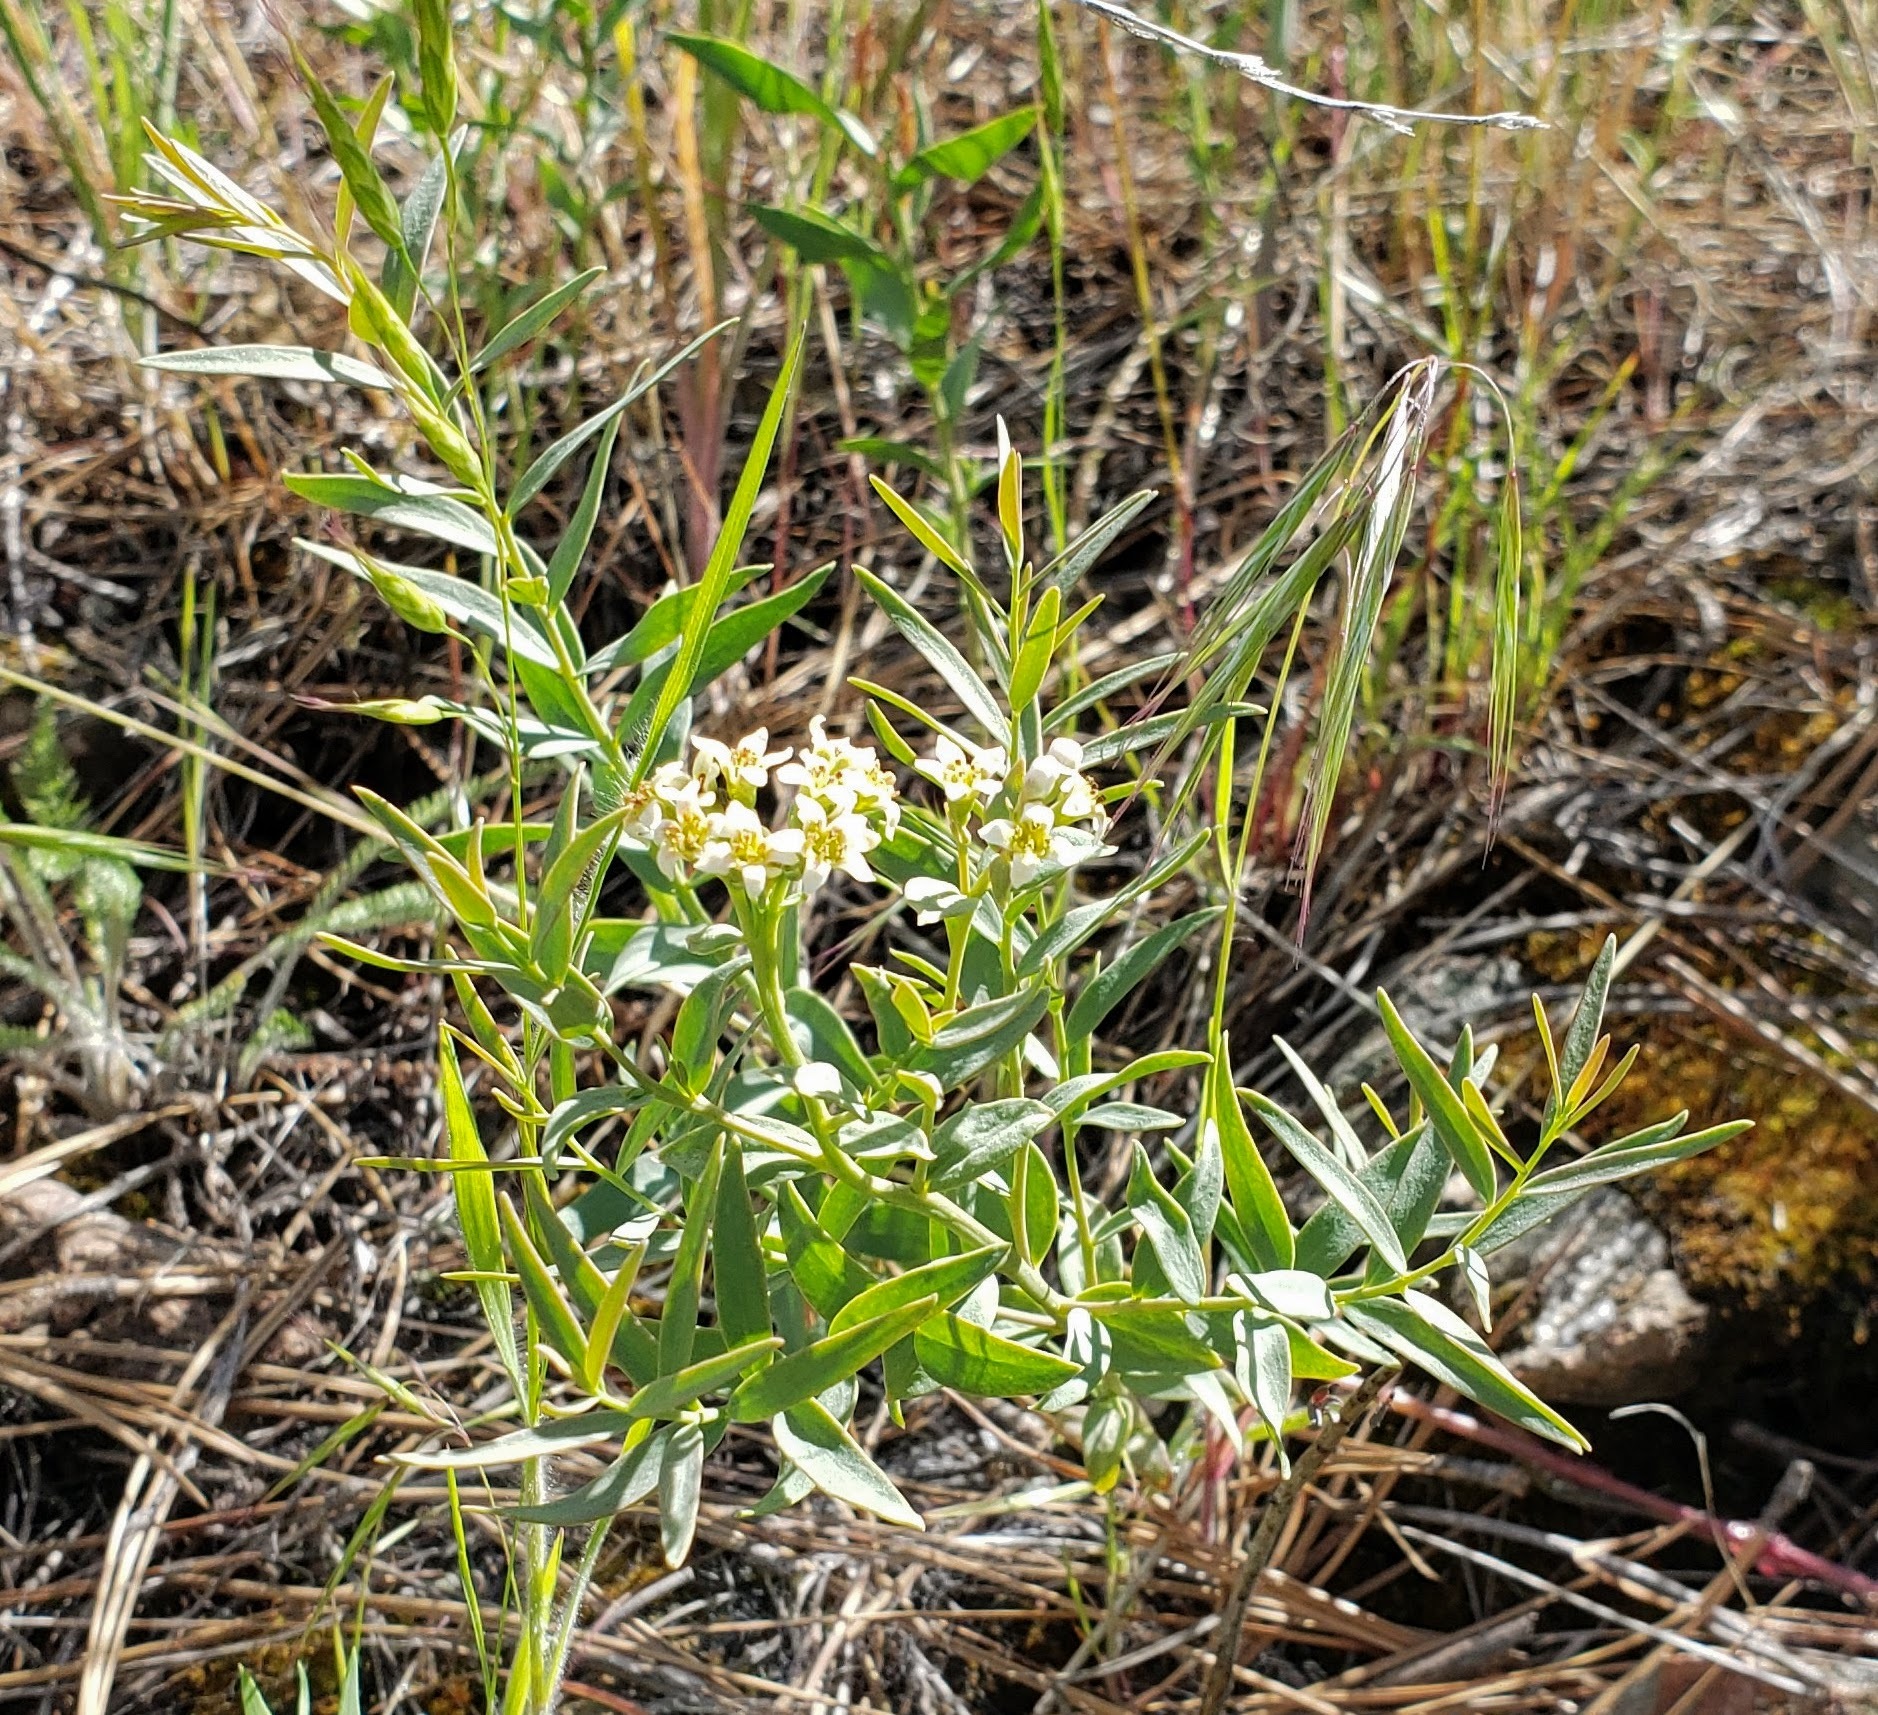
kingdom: Plantae
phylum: Tracheophyta
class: Magnoliopsida
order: Santalales
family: Comandraceae
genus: Comandra
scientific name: Comandra umbellata
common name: Bastard toadflax
